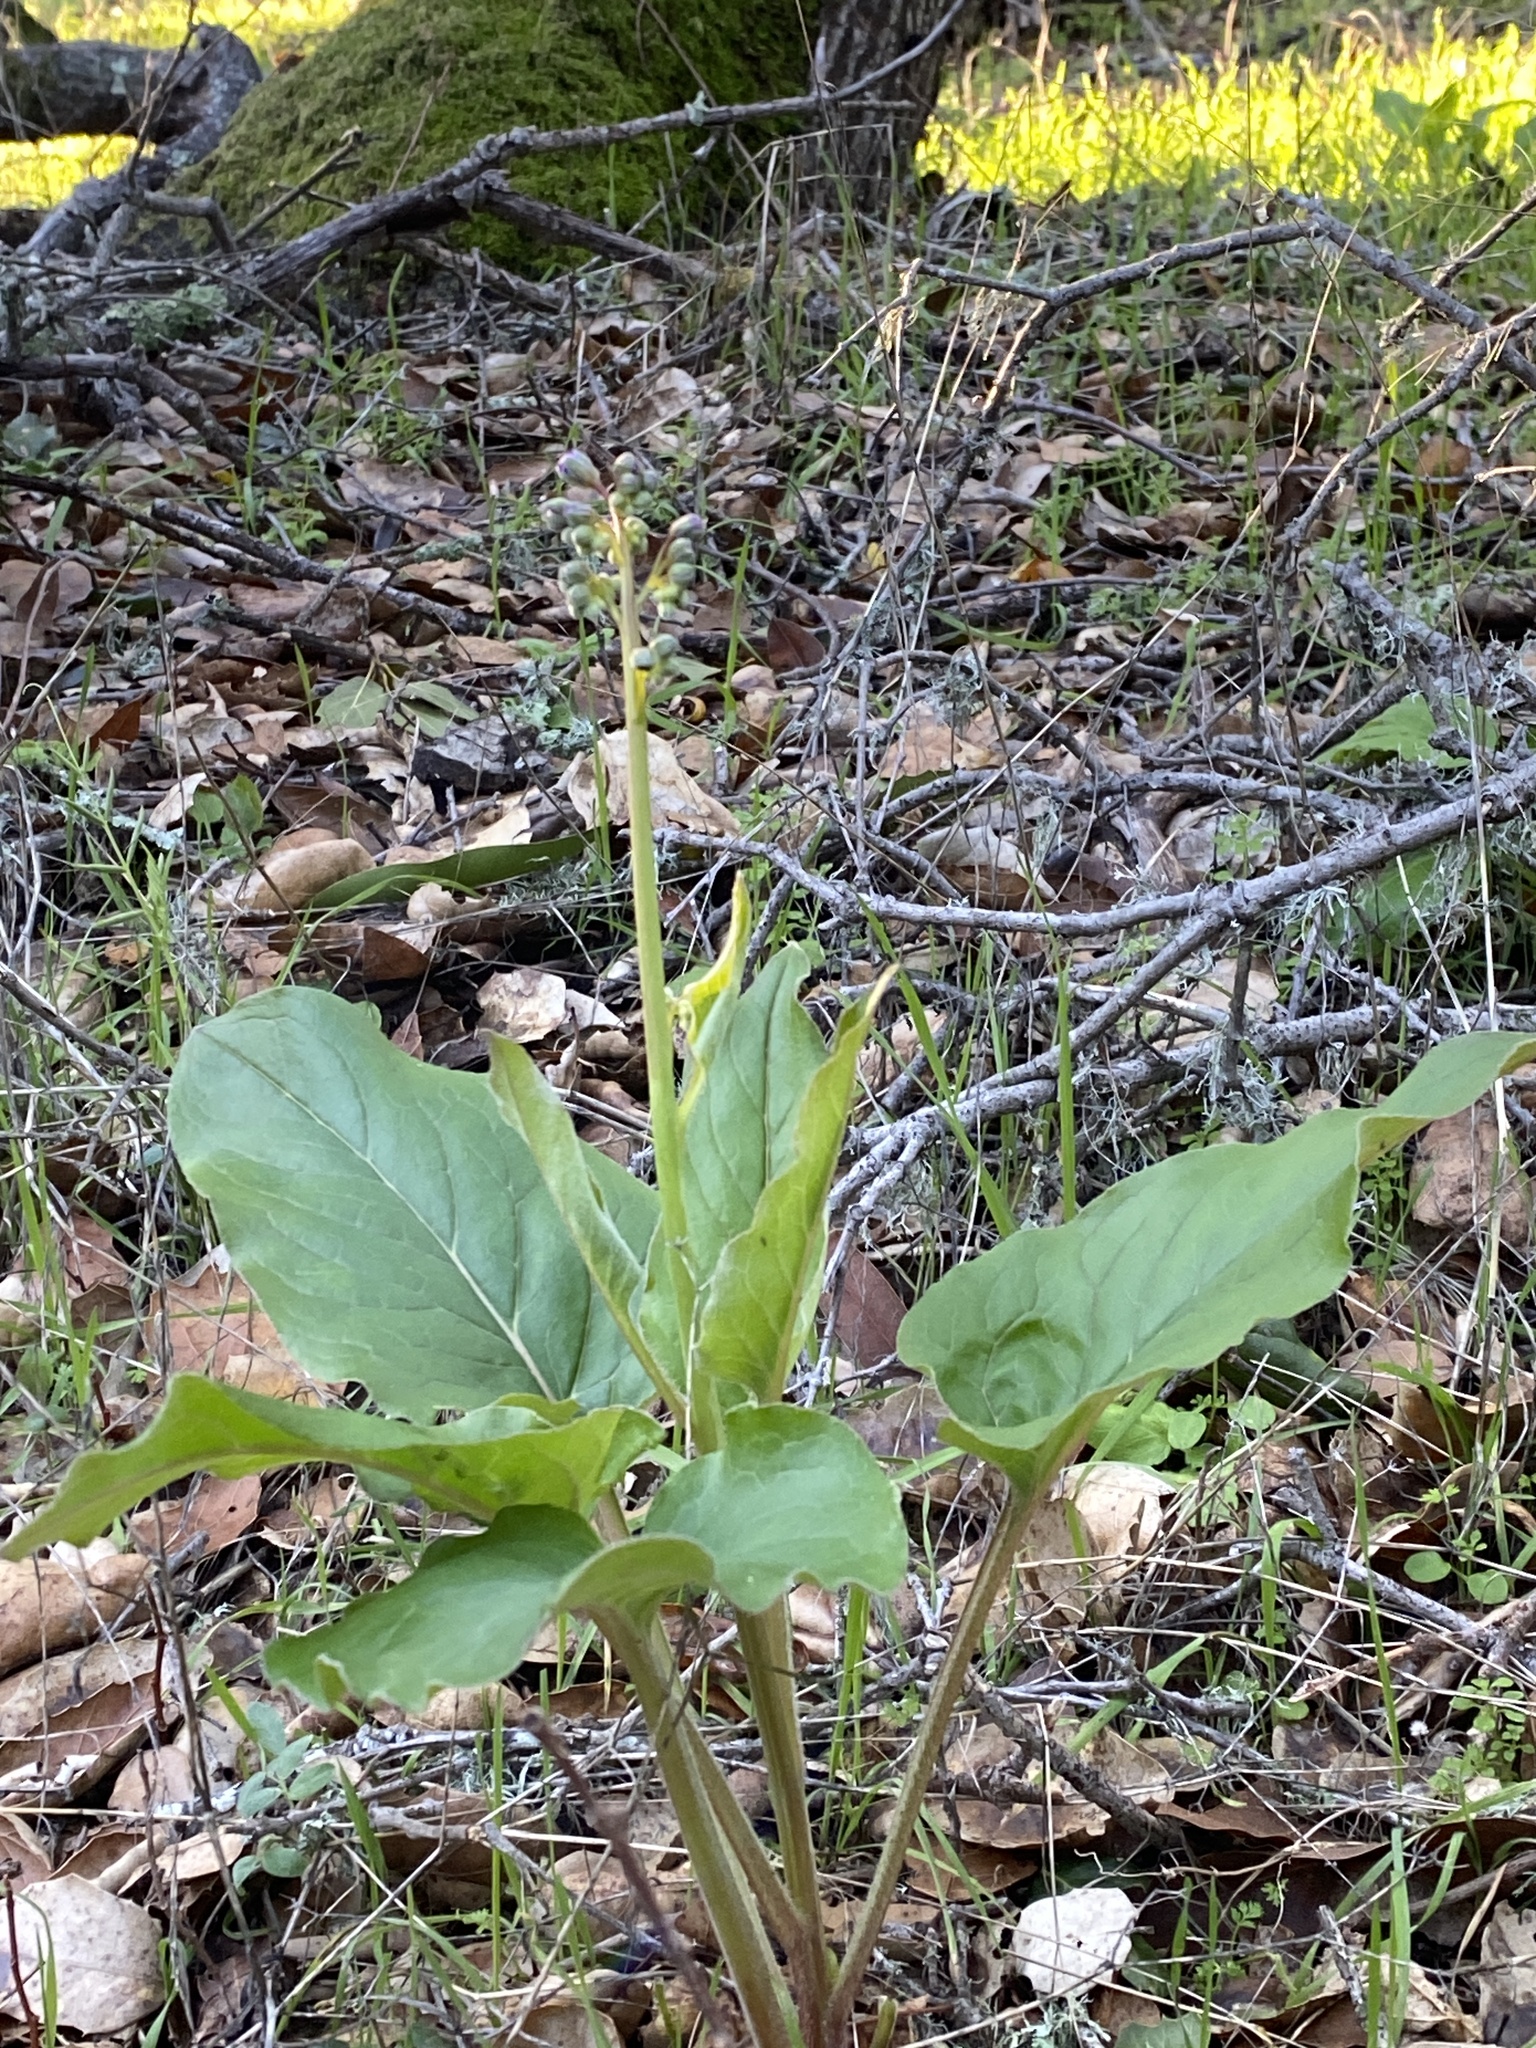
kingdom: Plantae
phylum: Tracheophyta
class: Magnoliopsida
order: Boraginales
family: Boraginaceae
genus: Adelinia
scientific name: Adelinia grande
